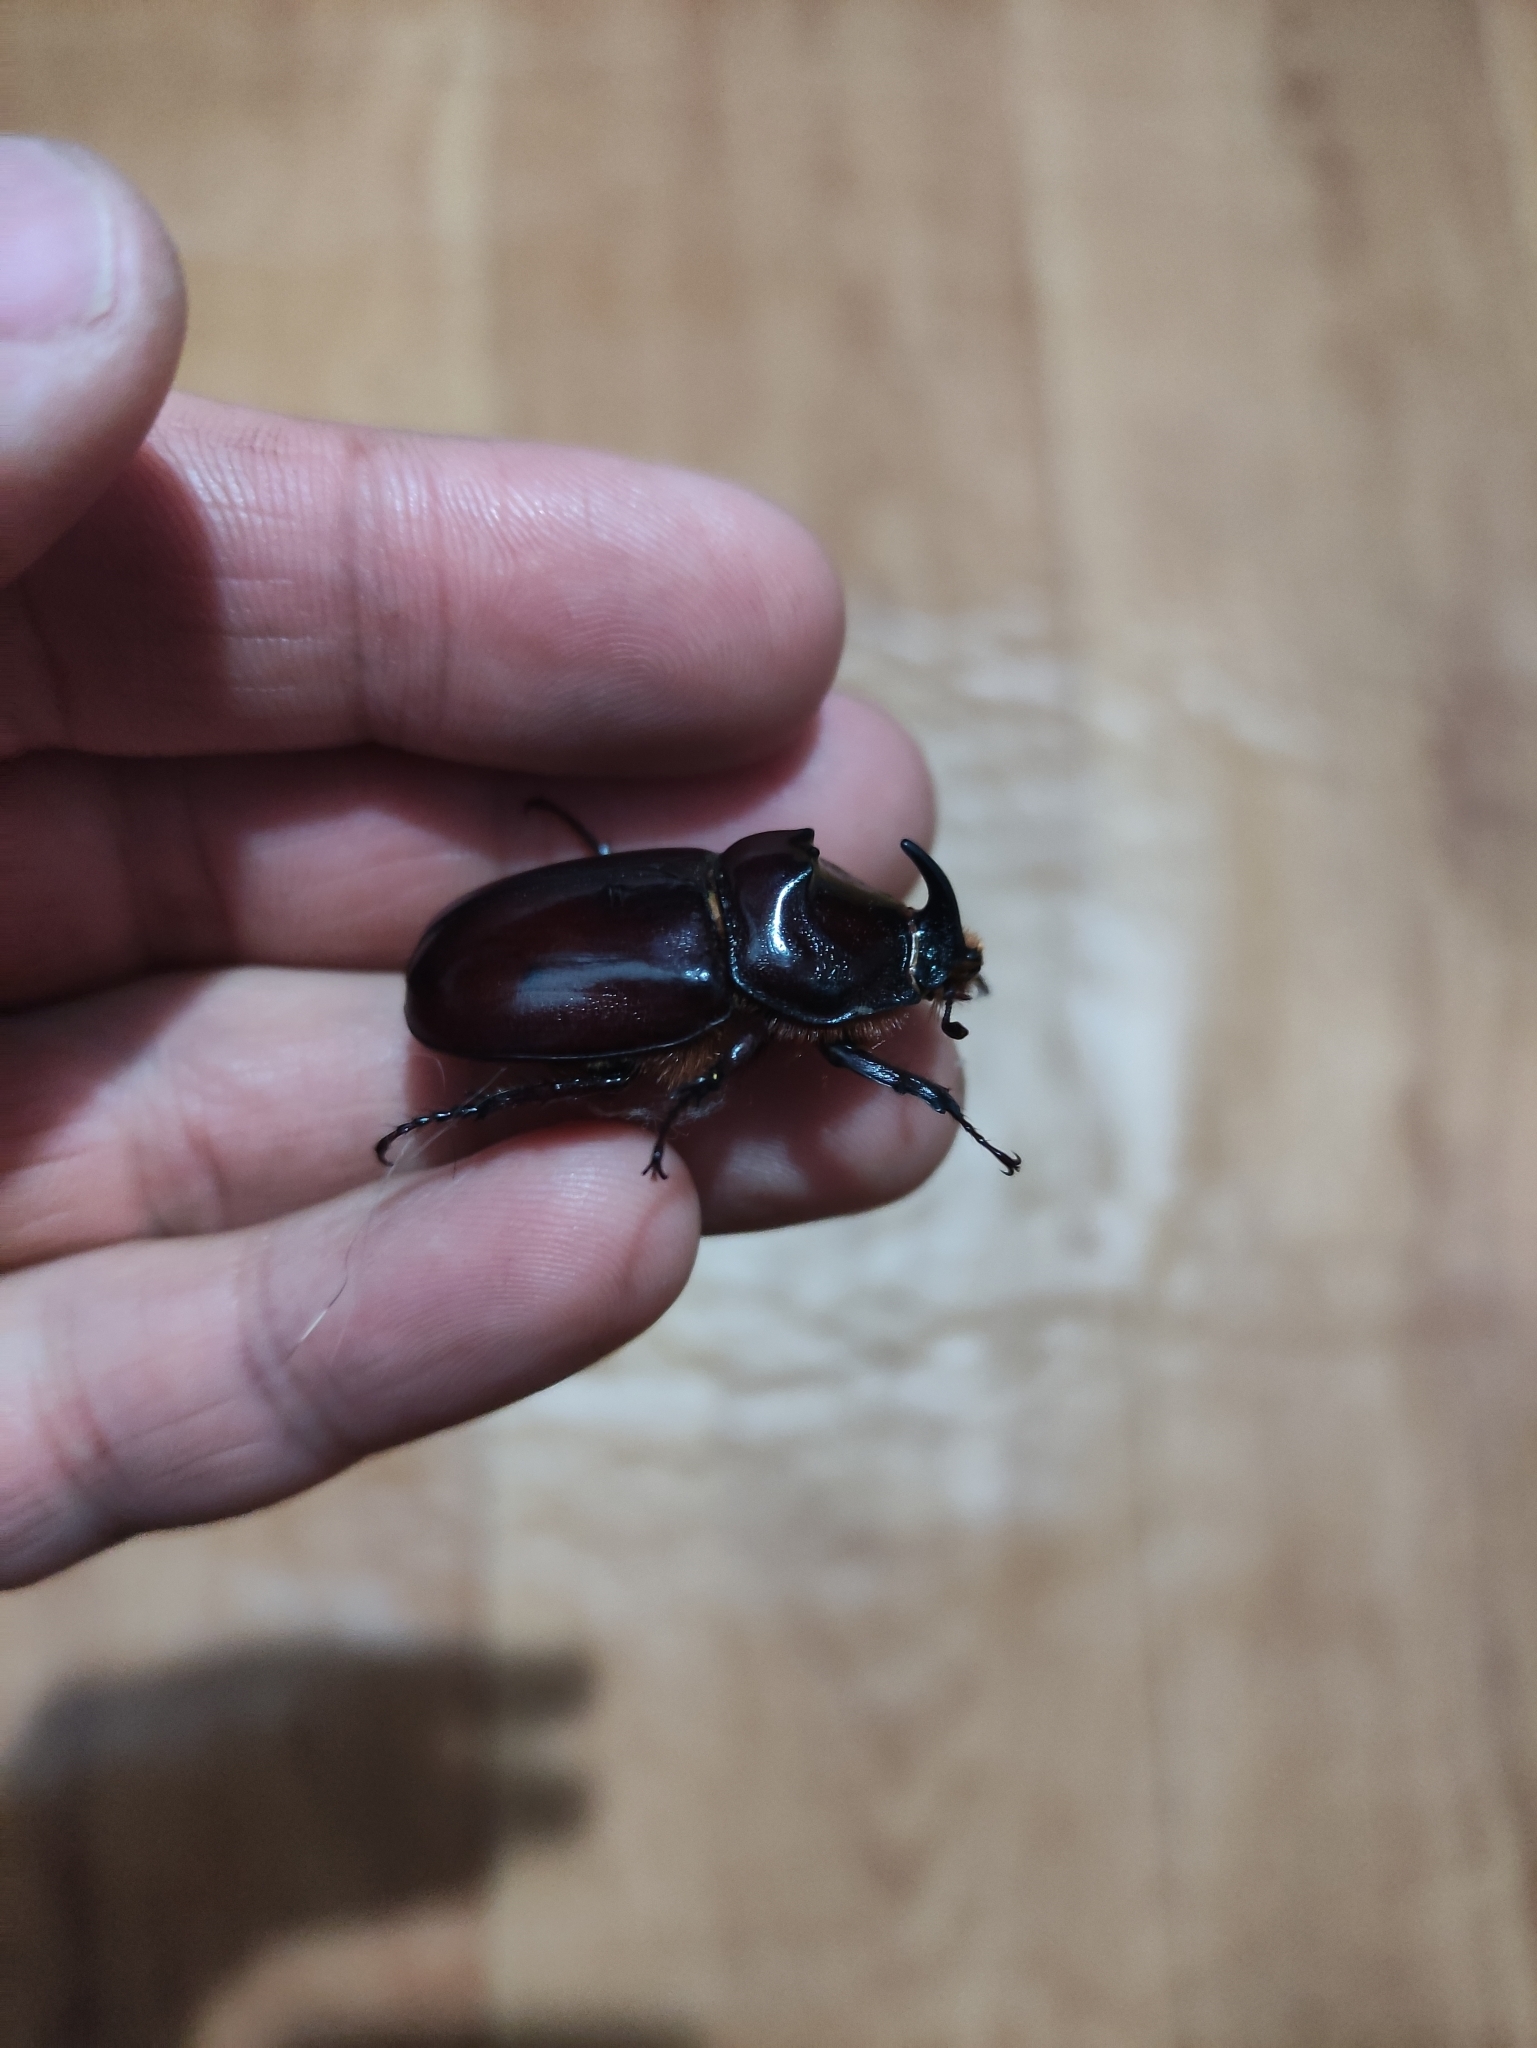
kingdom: Animalia
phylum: Arthropoda
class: Insecta
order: Coleoptera
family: Scarabaeidae
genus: Oryctes
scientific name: Oryctes nasicornis
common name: European rhinoceros beetle
